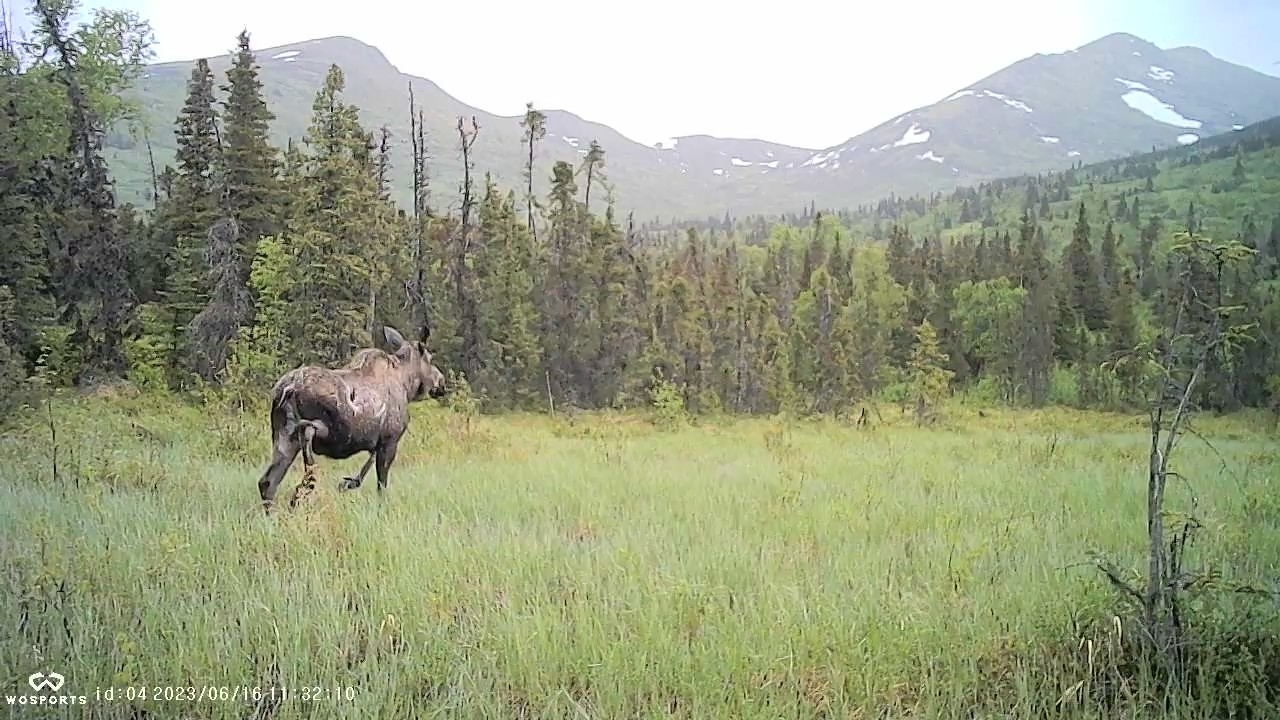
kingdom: Animalia
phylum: Chordata
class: Mammalia
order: Artiodactyla
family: Cervidae
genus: Alces
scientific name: Alces alces
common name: Moose
